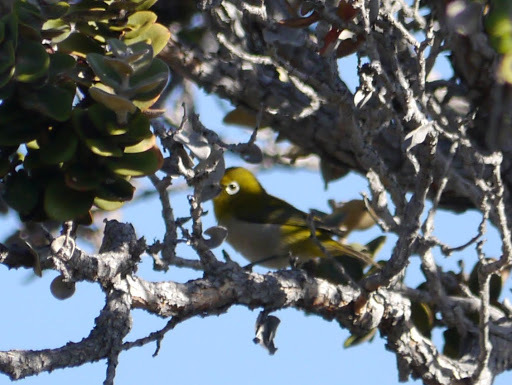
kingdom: Animalia
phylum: Chordata
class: Aves
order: Passeriformes
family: Zosteropidae
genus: Zosterops
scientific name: Zosterops japonicus
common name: Japanese white-eye
